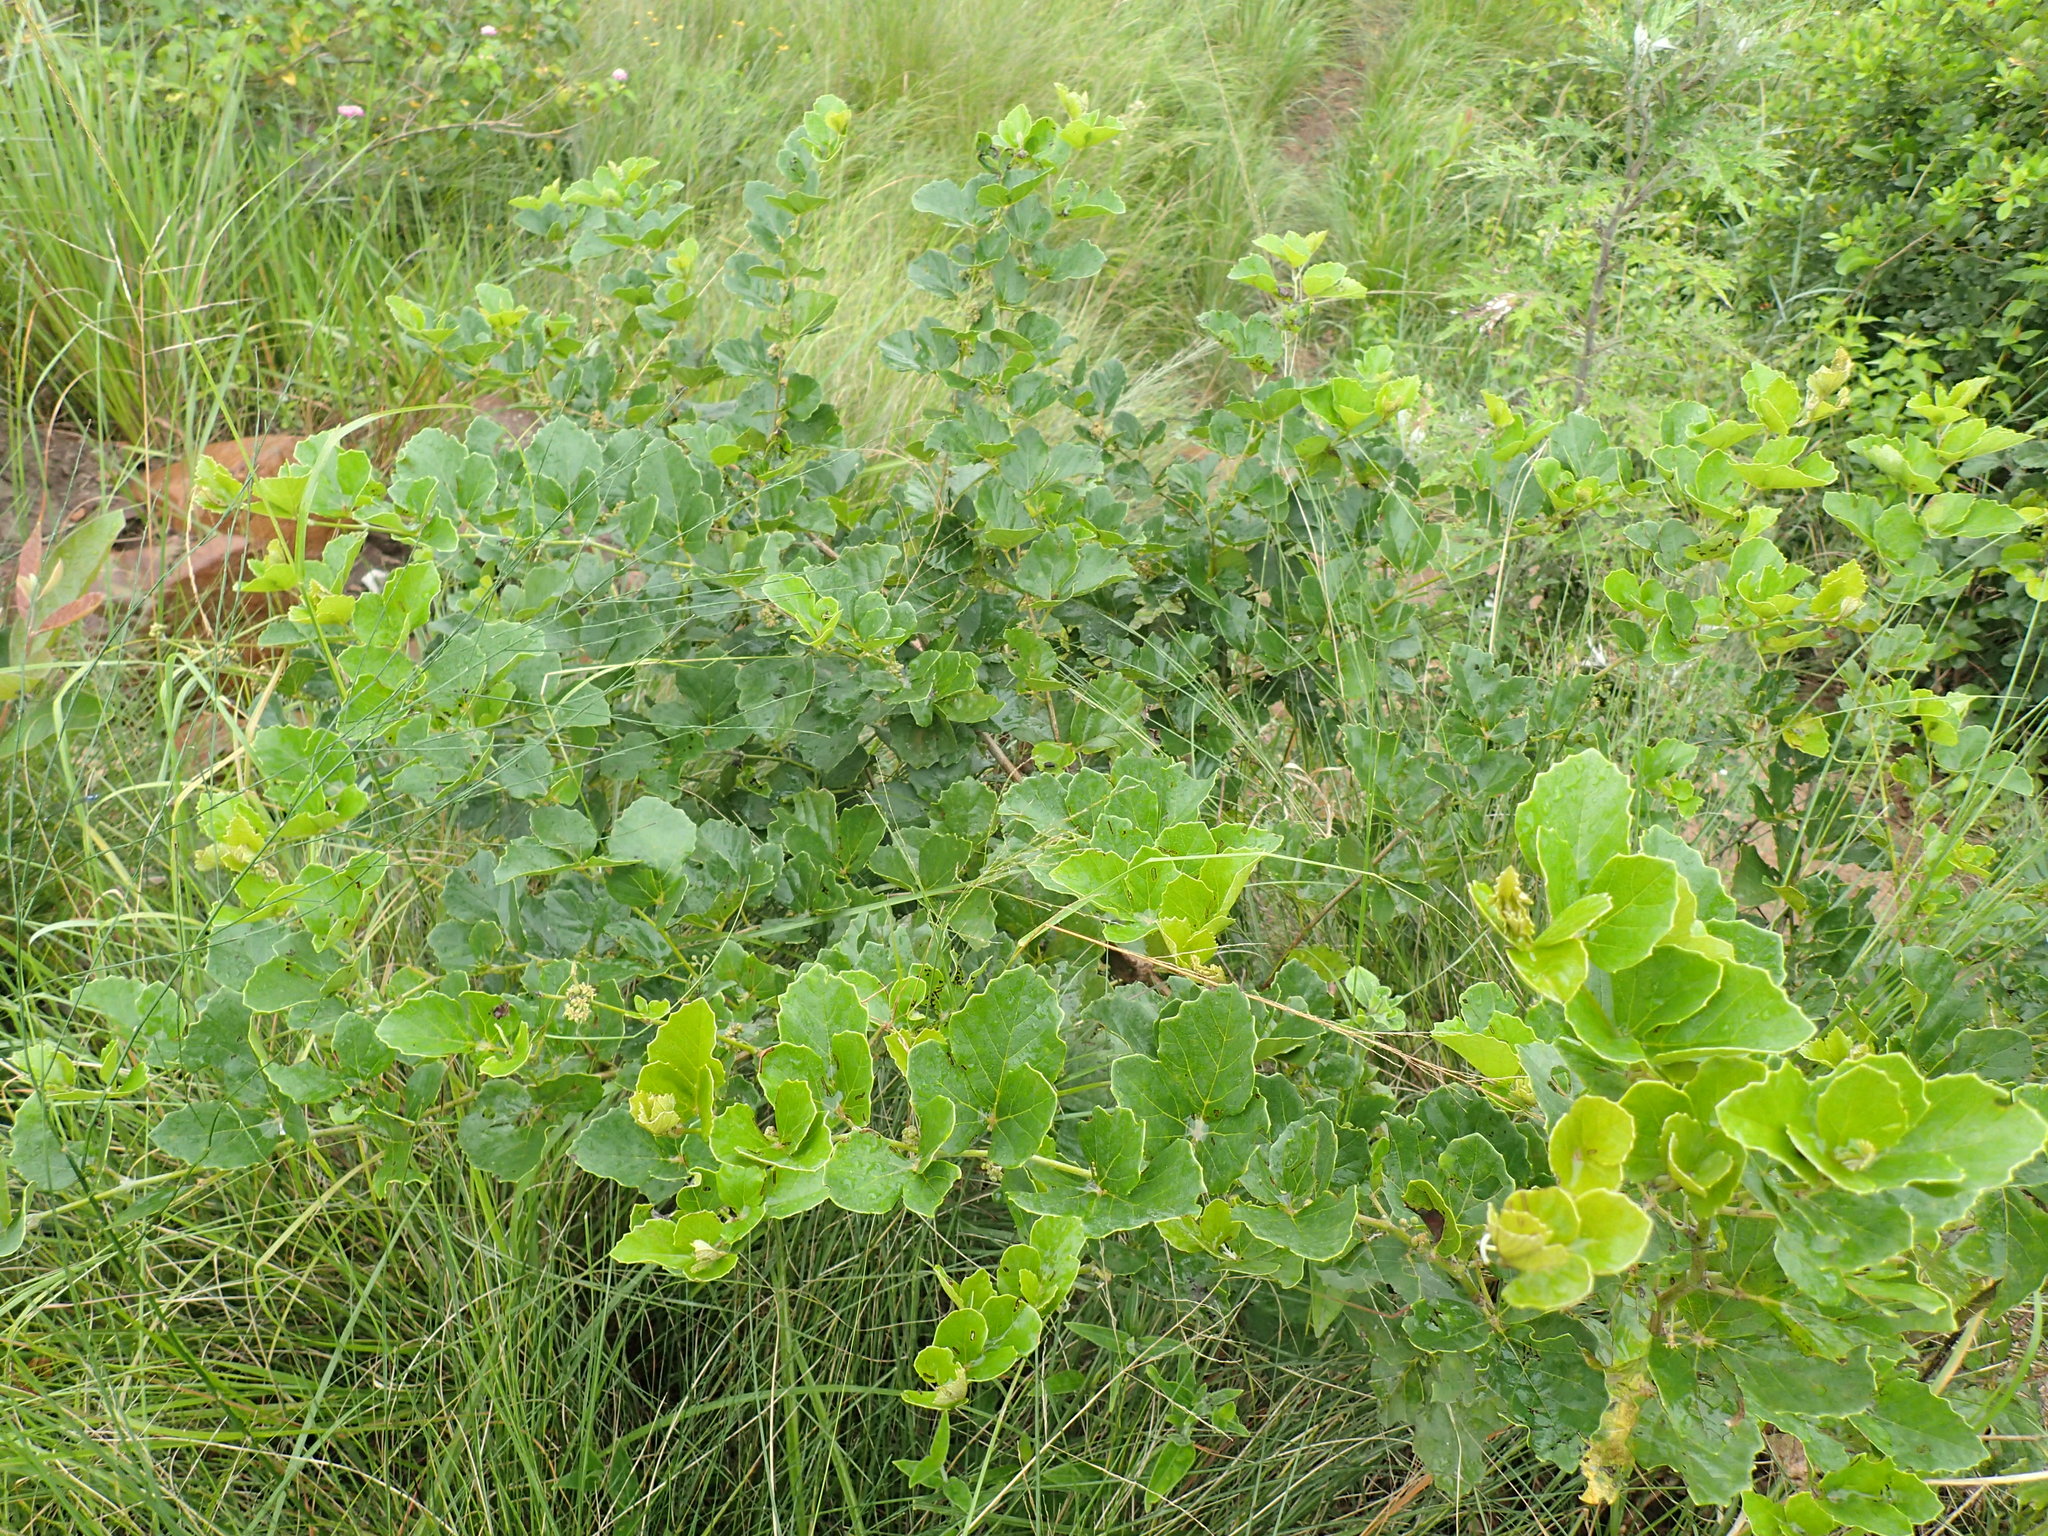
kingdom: Plantae
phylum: Tracheophyta
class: Magnoliopsida
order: Vitales
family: Vitaceae
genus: Rhoicissus
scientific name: Rhoicissus tridentata
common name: Common forest grape
